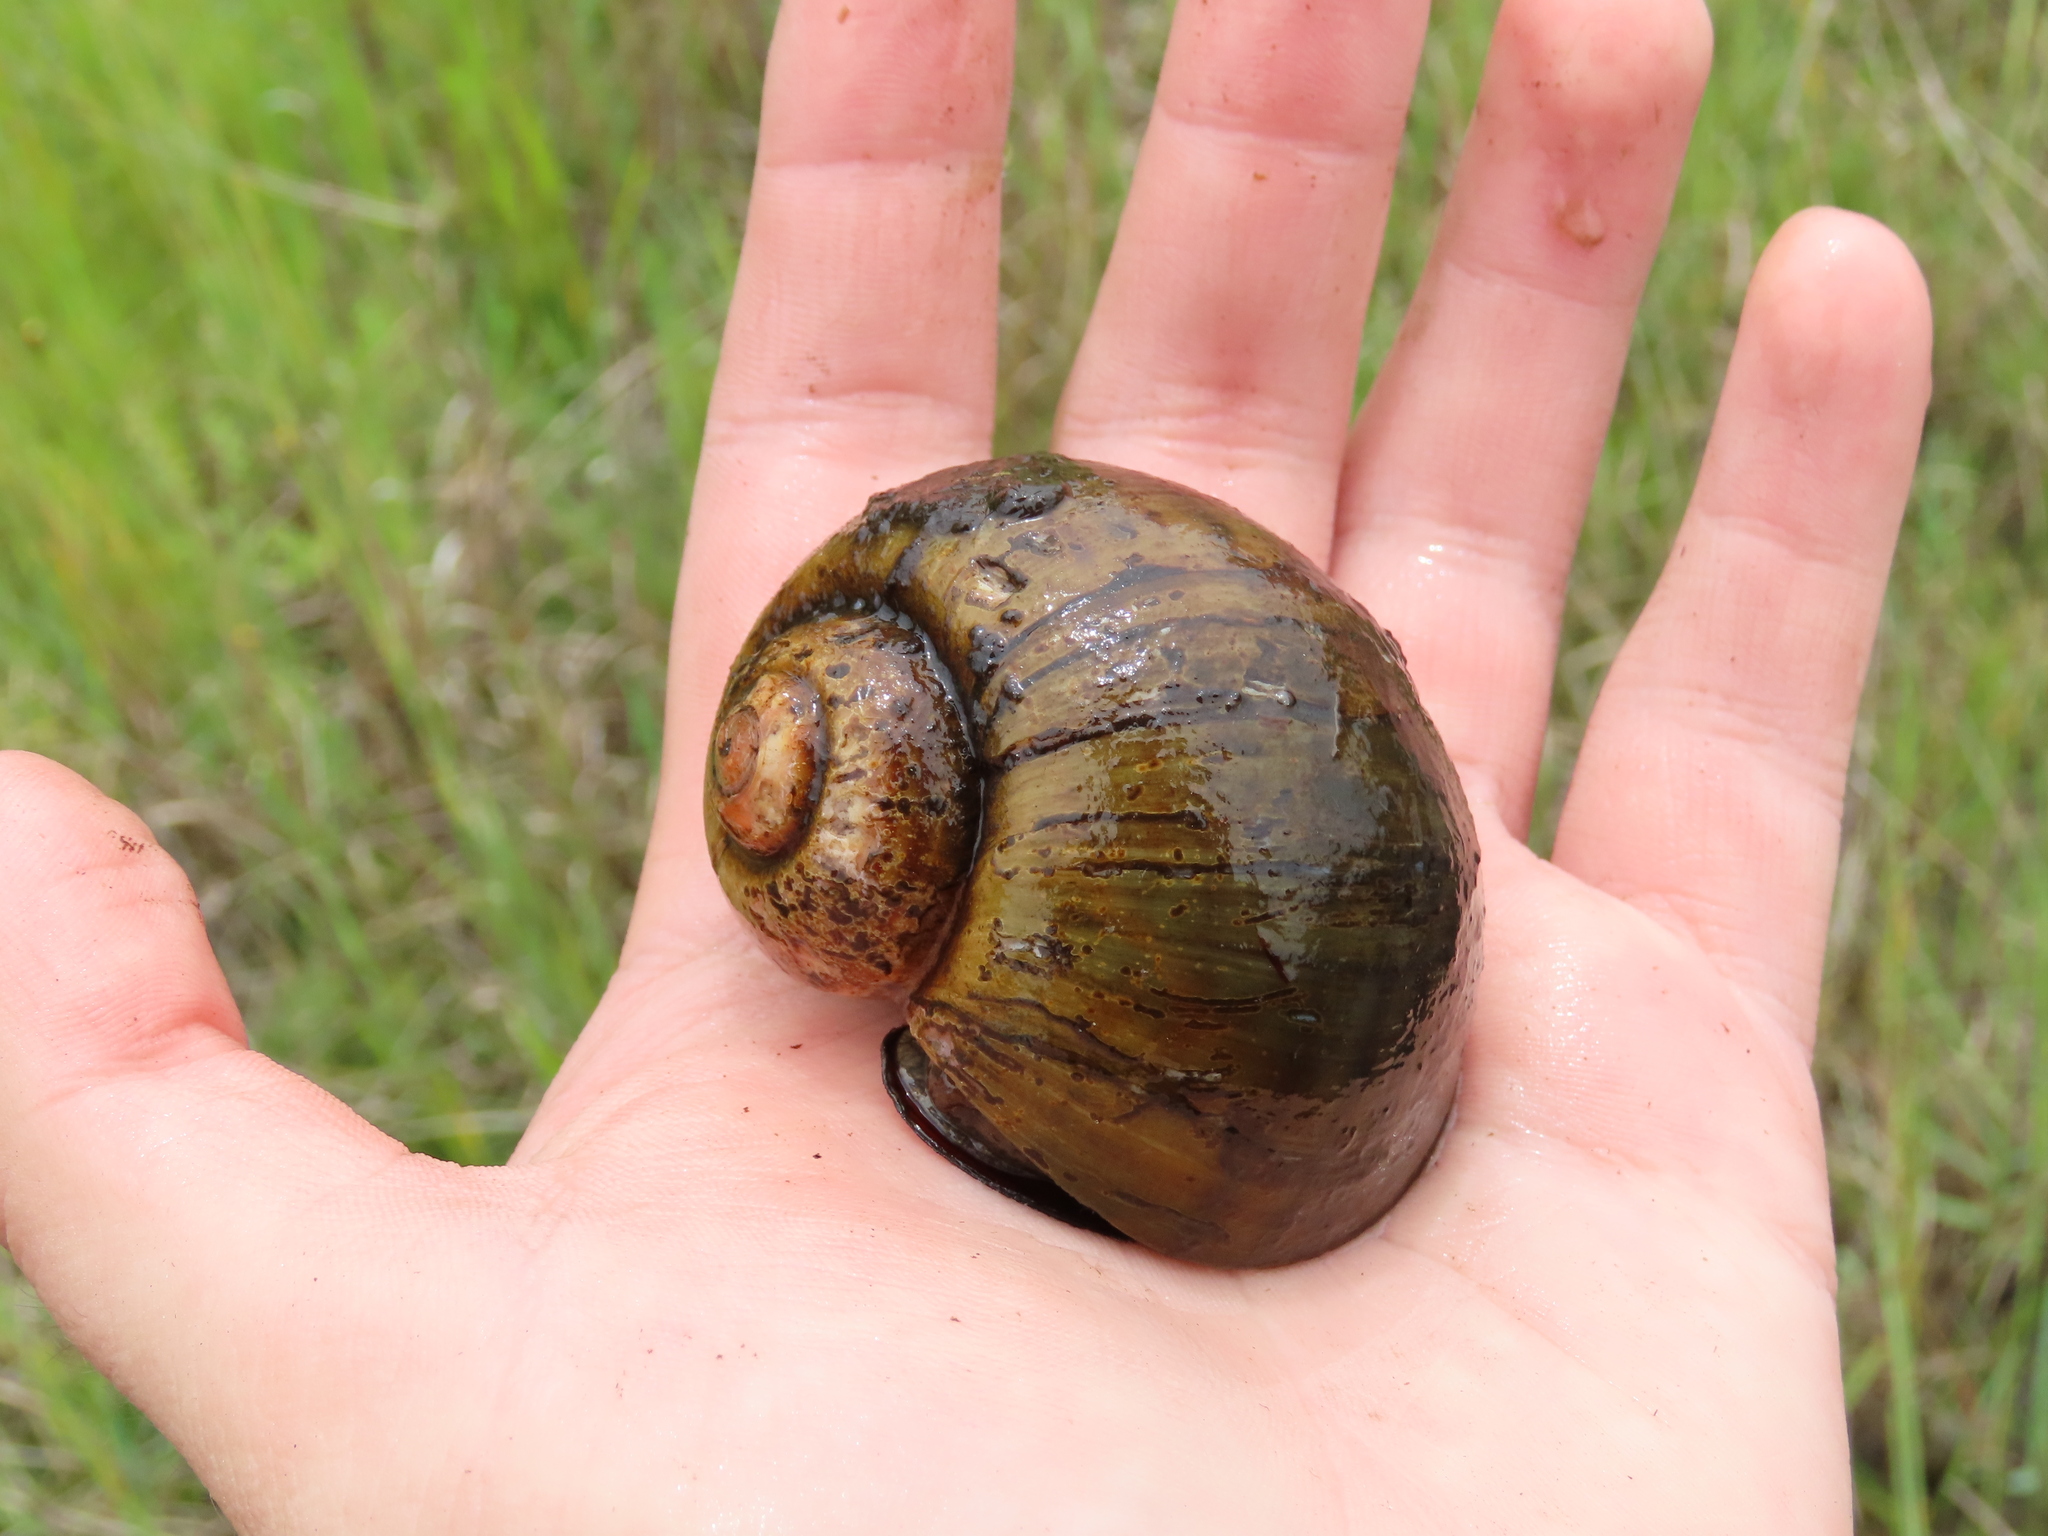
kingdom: Animalia
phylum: Mollusca
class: Gastropoda
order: Architaenioglossa
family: Ampullariidae
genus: Pomacea
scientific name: Pomacea maculata
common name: Giant applesnail
